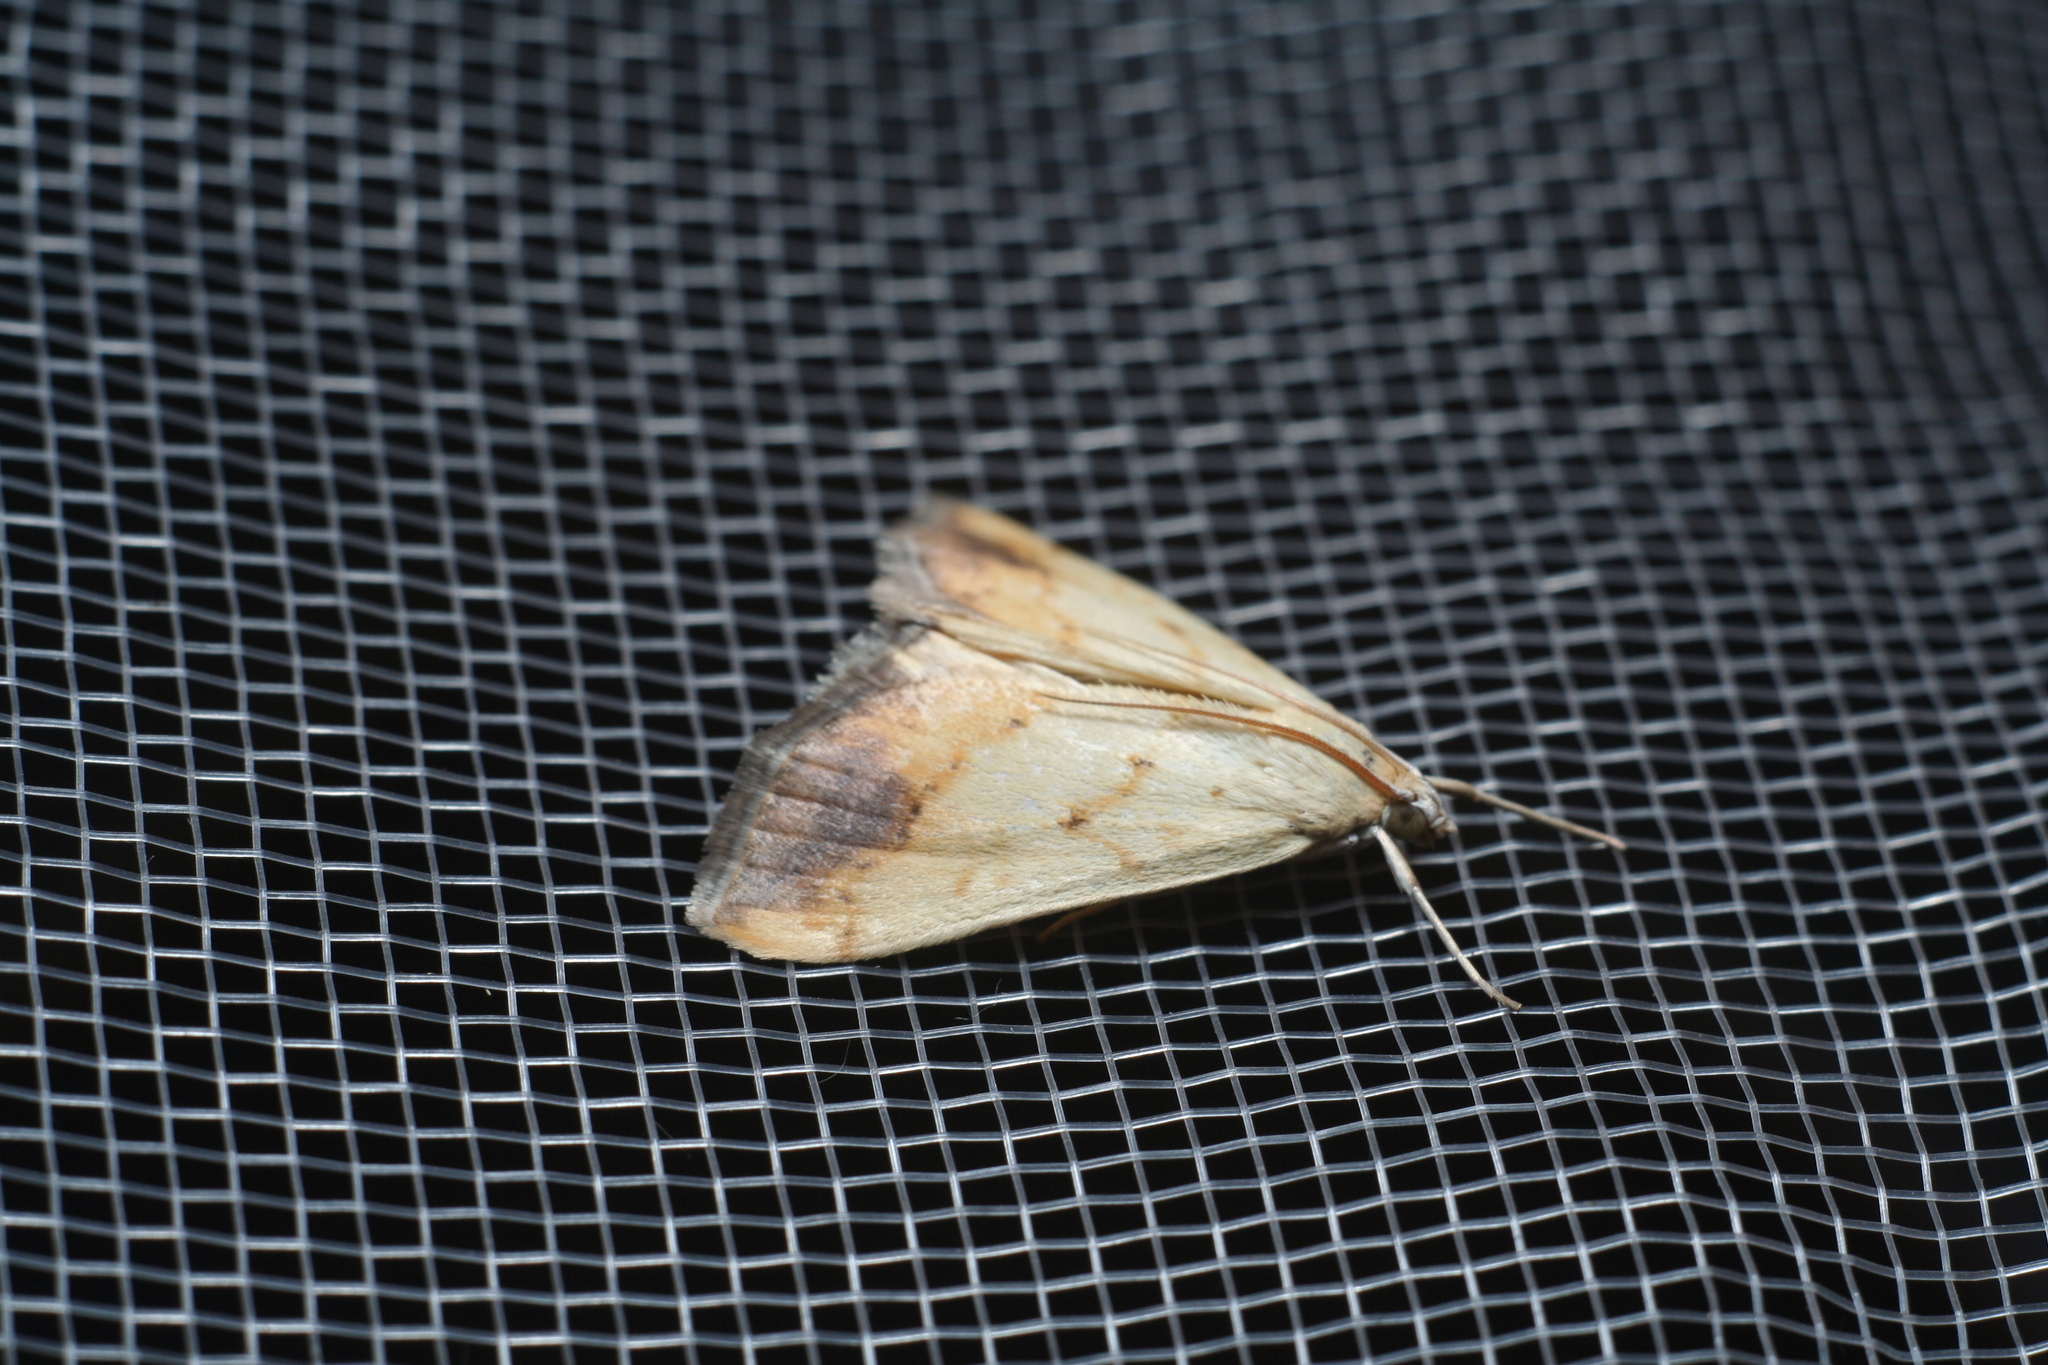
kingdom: Animalia
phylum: Arthropoda
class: Insecta
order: Lepidoptera
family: Crambidae
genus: Evergestis
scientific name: Evergestis extimalis
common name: Marbled yellow pearl
